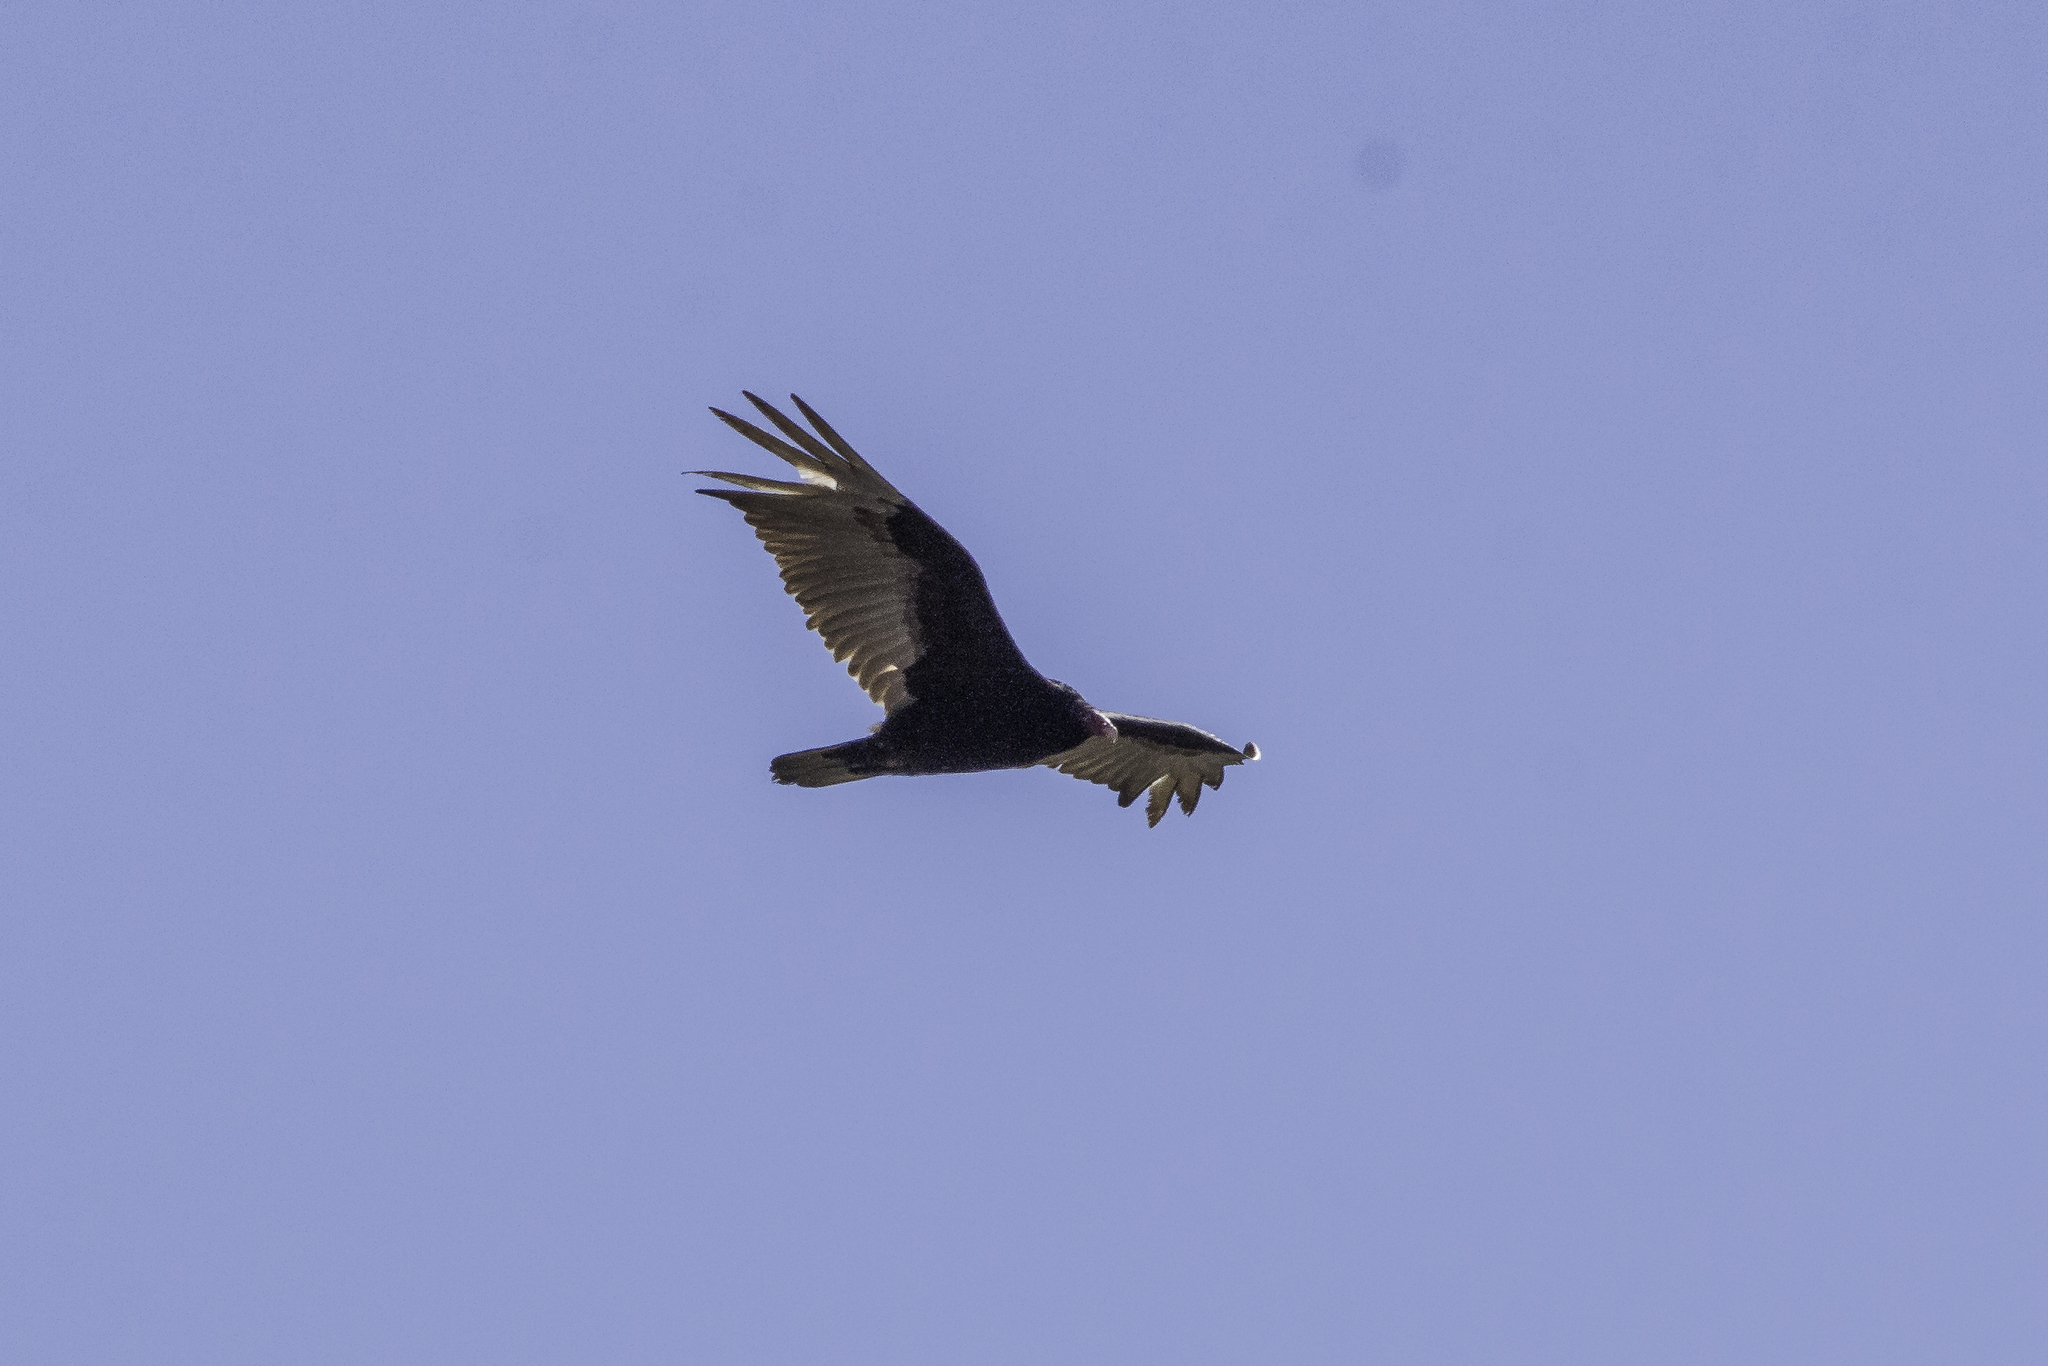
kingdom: Animalia
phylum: Chordata
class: Aves
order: Accipitriformes
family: Cathartidae
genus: Cathartes
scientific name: Cathartes aura
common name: Turkey vulture
